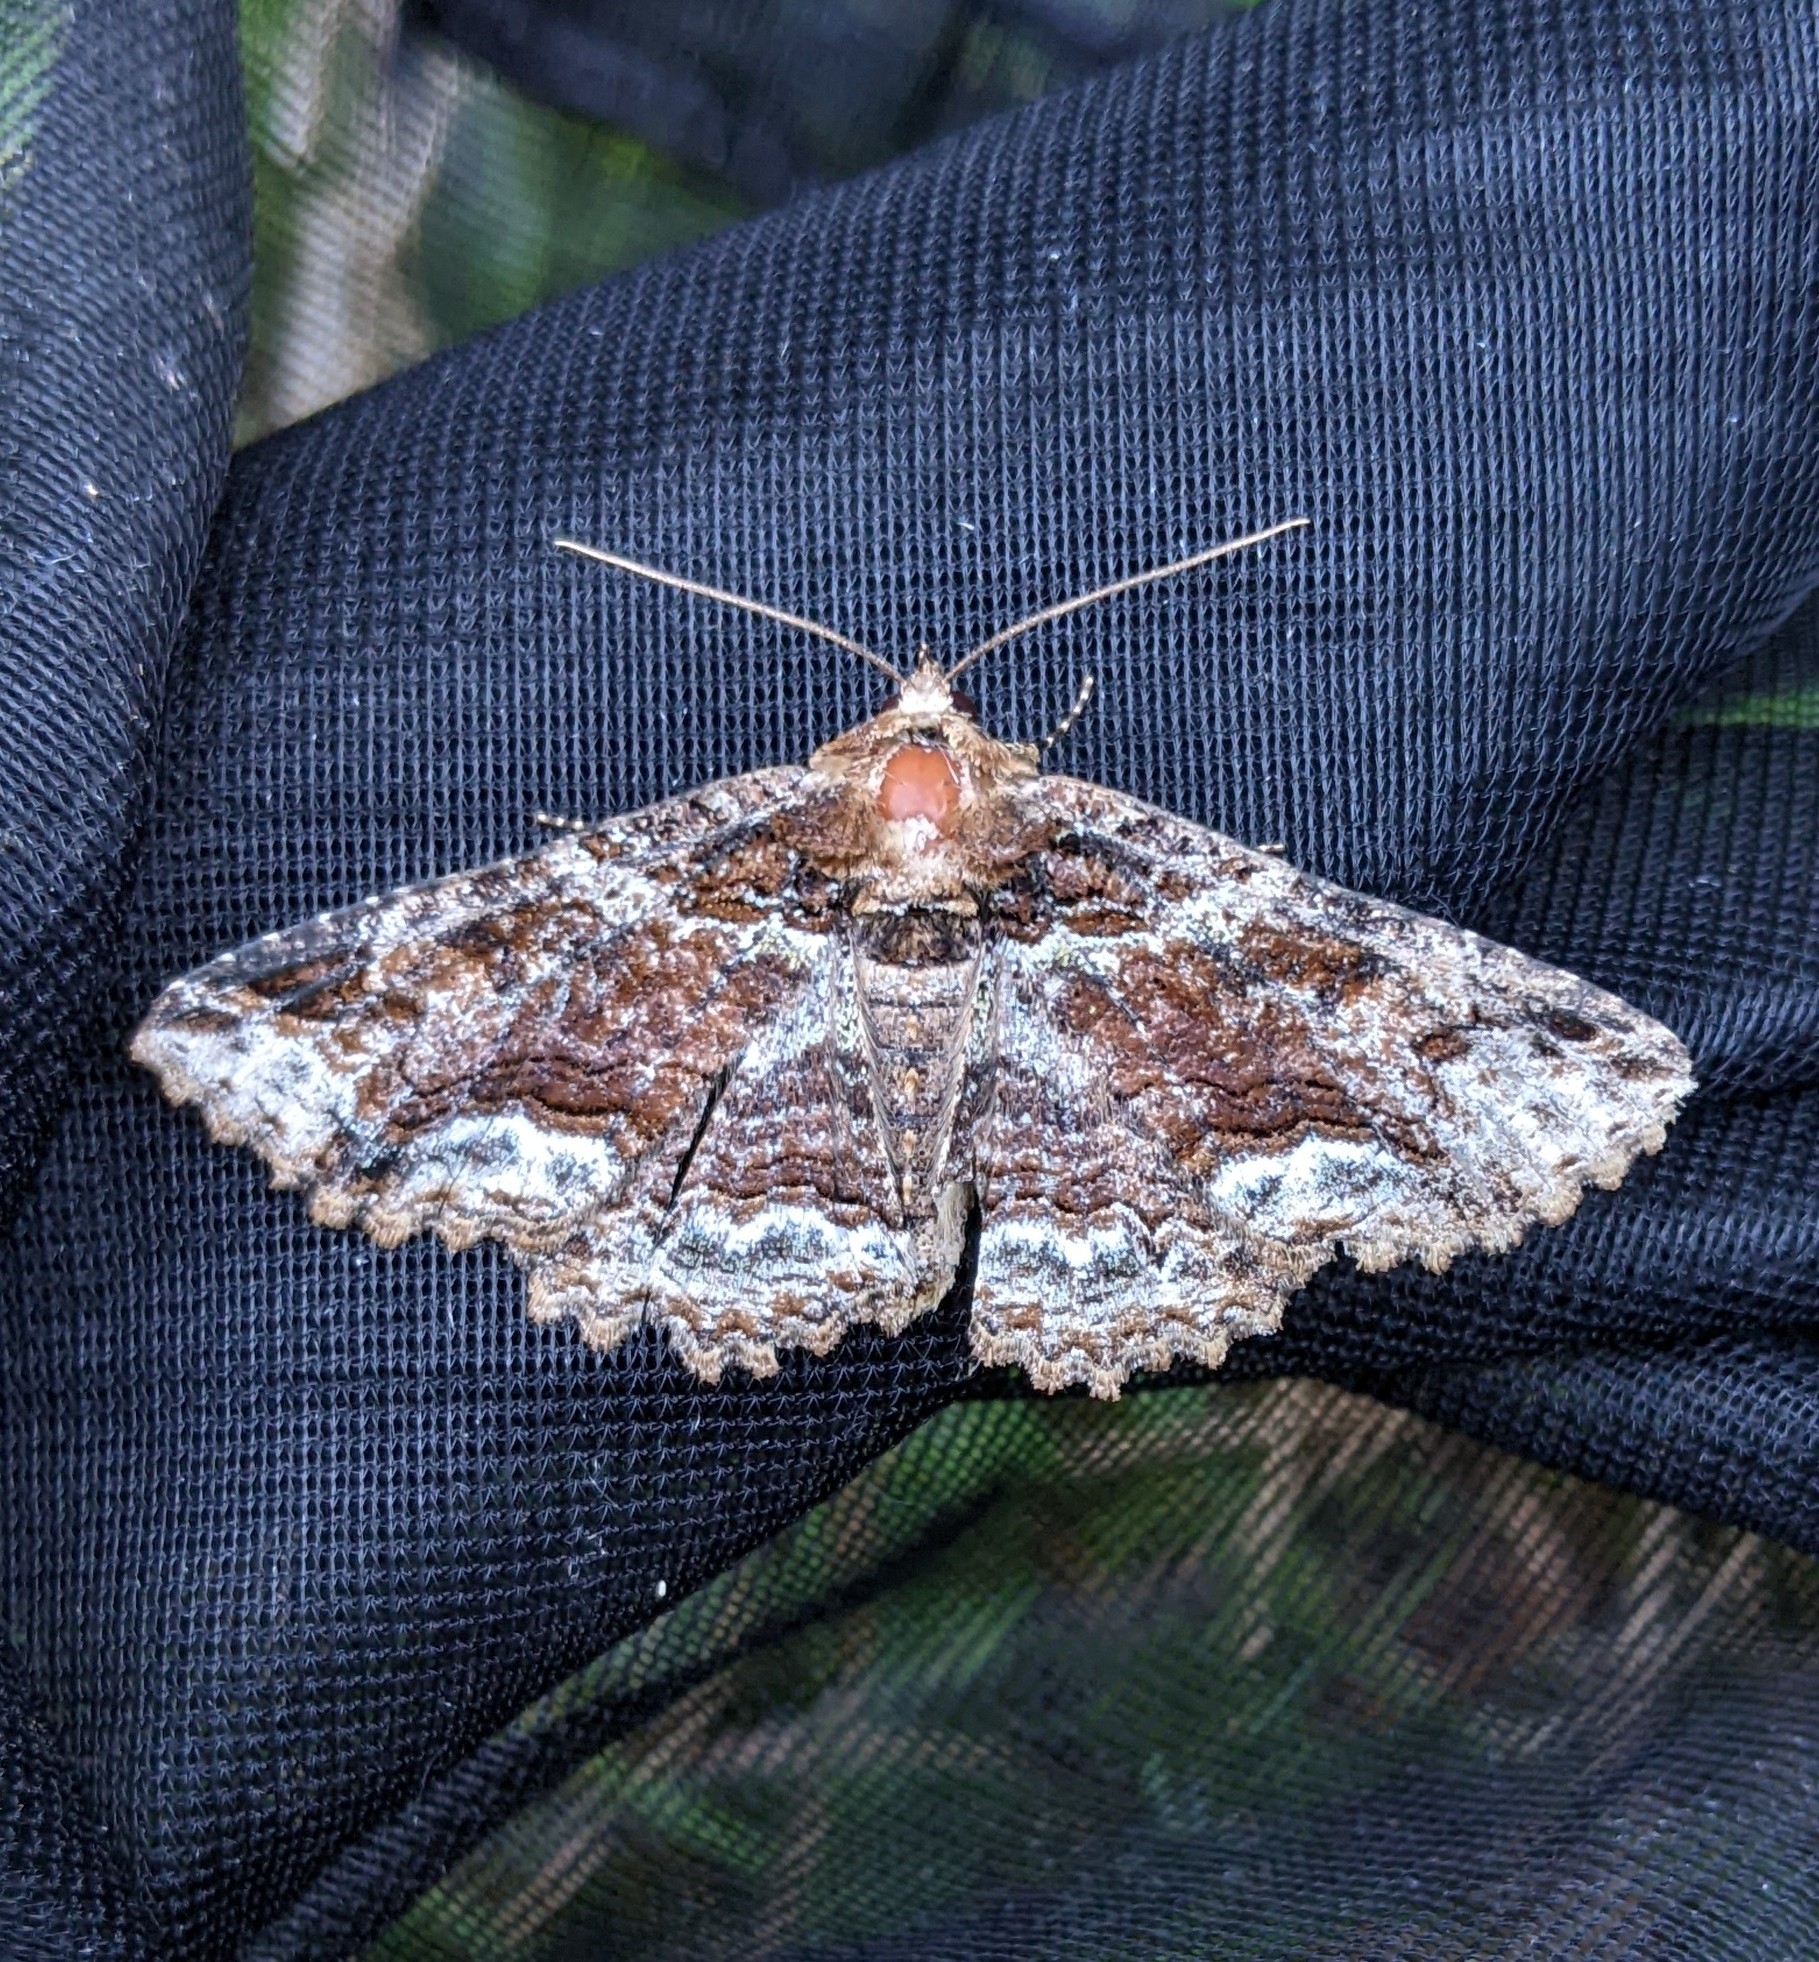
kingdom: Animalia
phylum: Arthropoda
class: Insecta
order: Lepidoptera
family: Erebidae
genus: Zale
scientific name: Zale minerea
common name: Colorful zale moth
